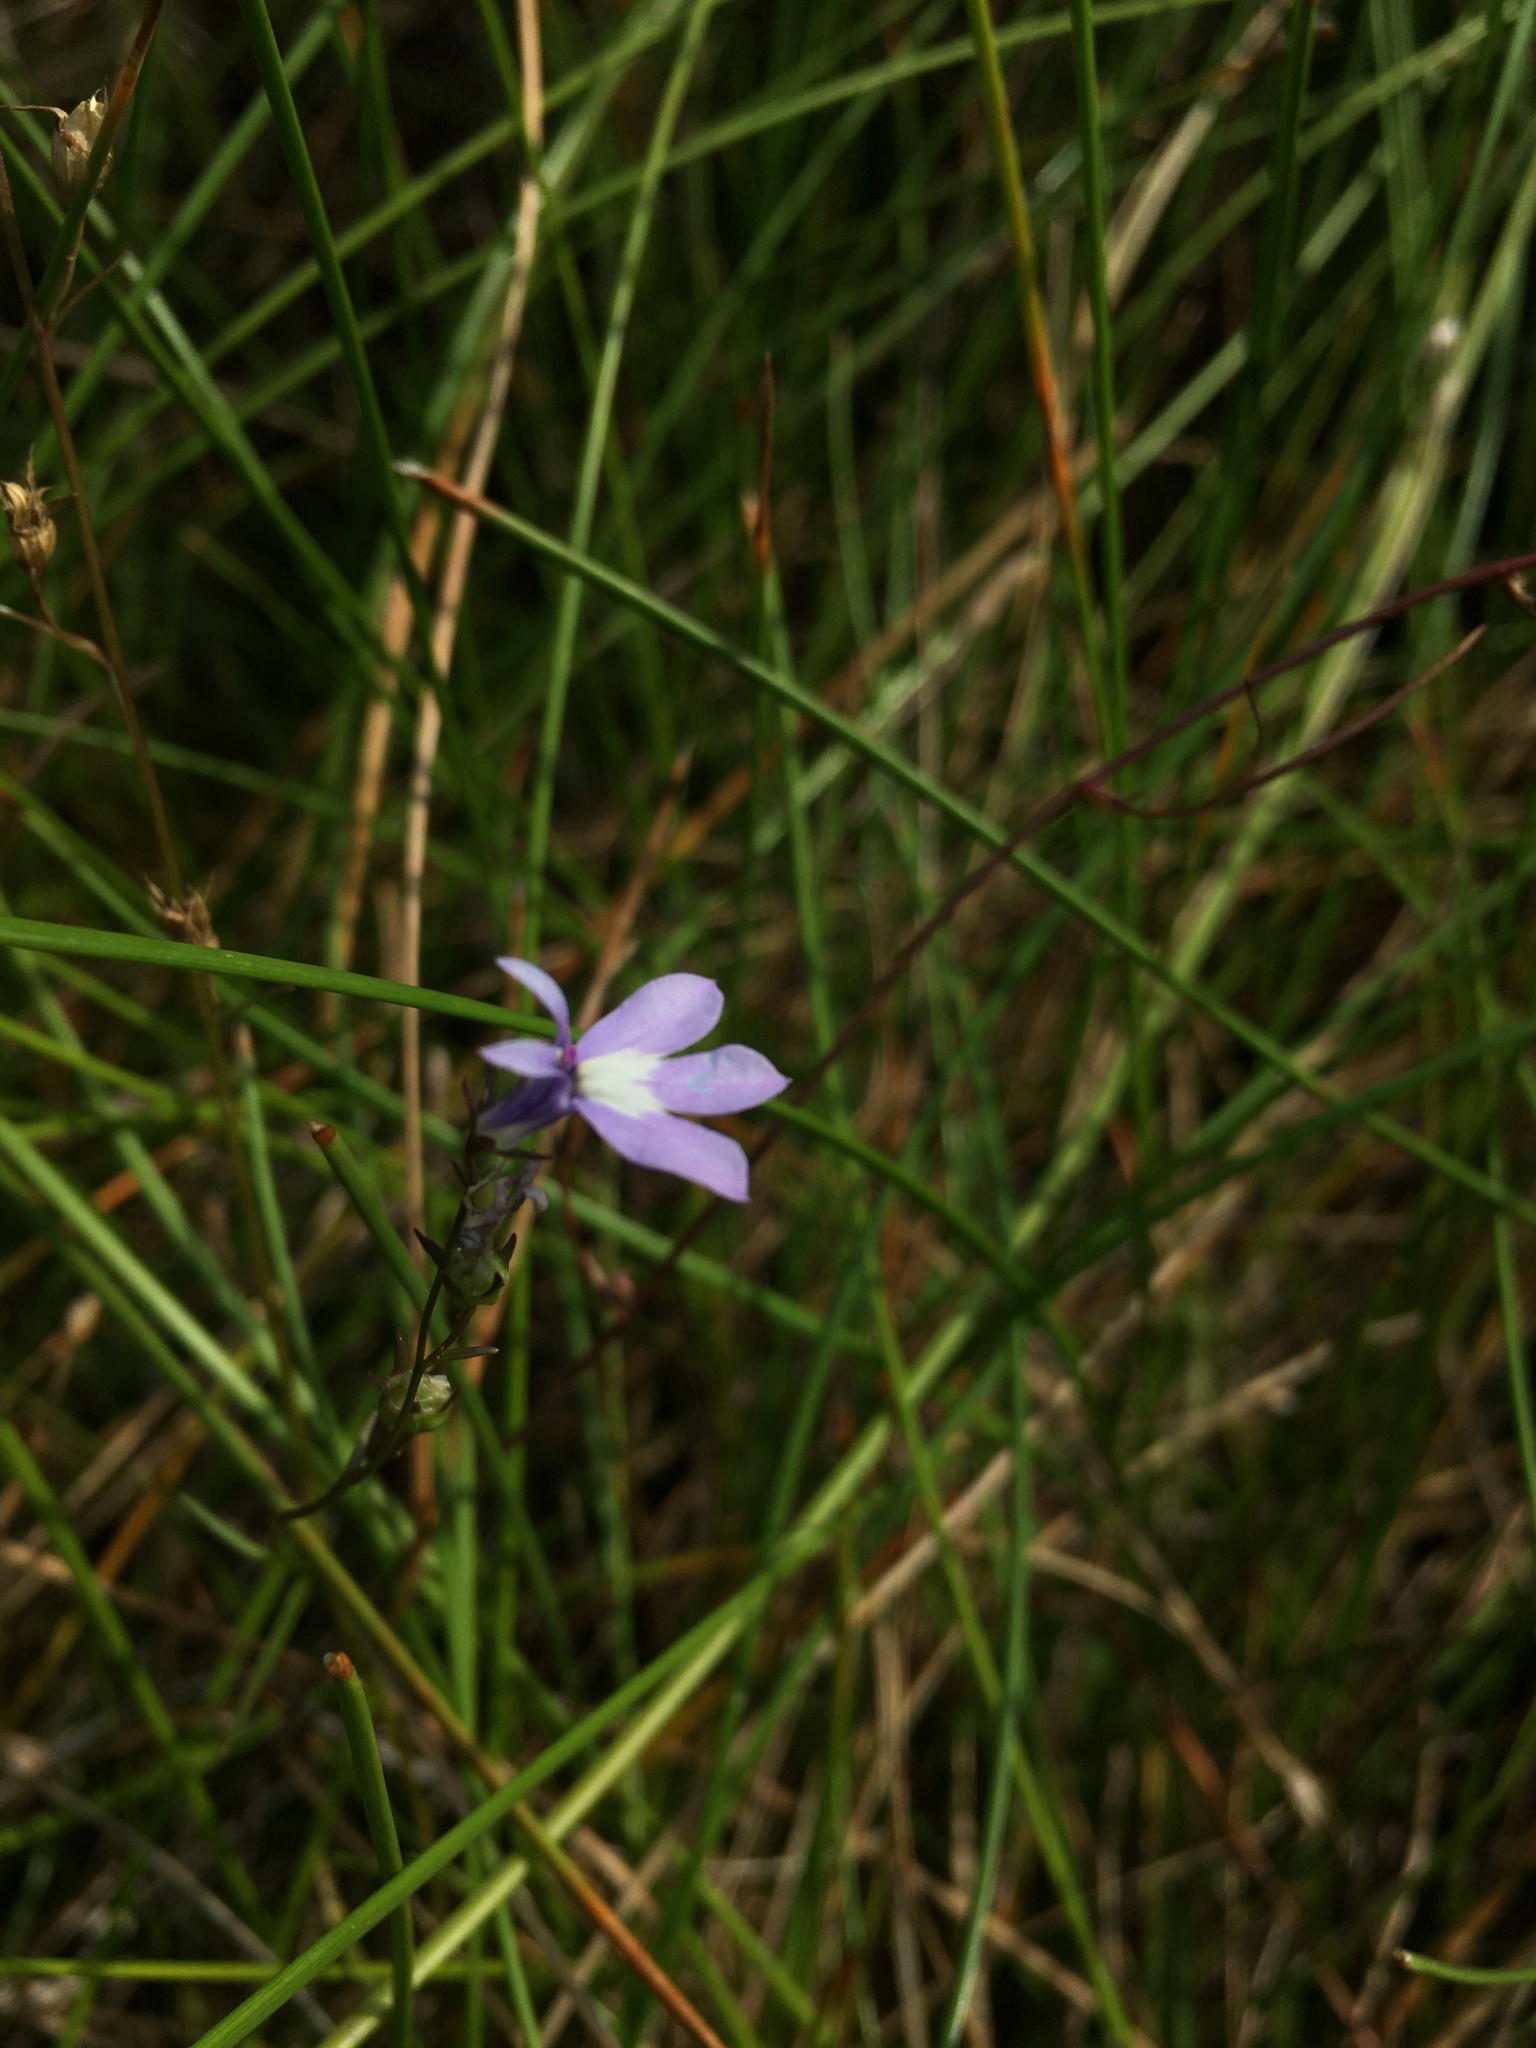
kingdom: Plantae
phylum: Tracheophyta
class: Magnoliopsida
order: Asterales
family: Campanulaceae
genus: Lobelia
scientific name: Lobelia kalmii
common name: Kalm's lobelia
